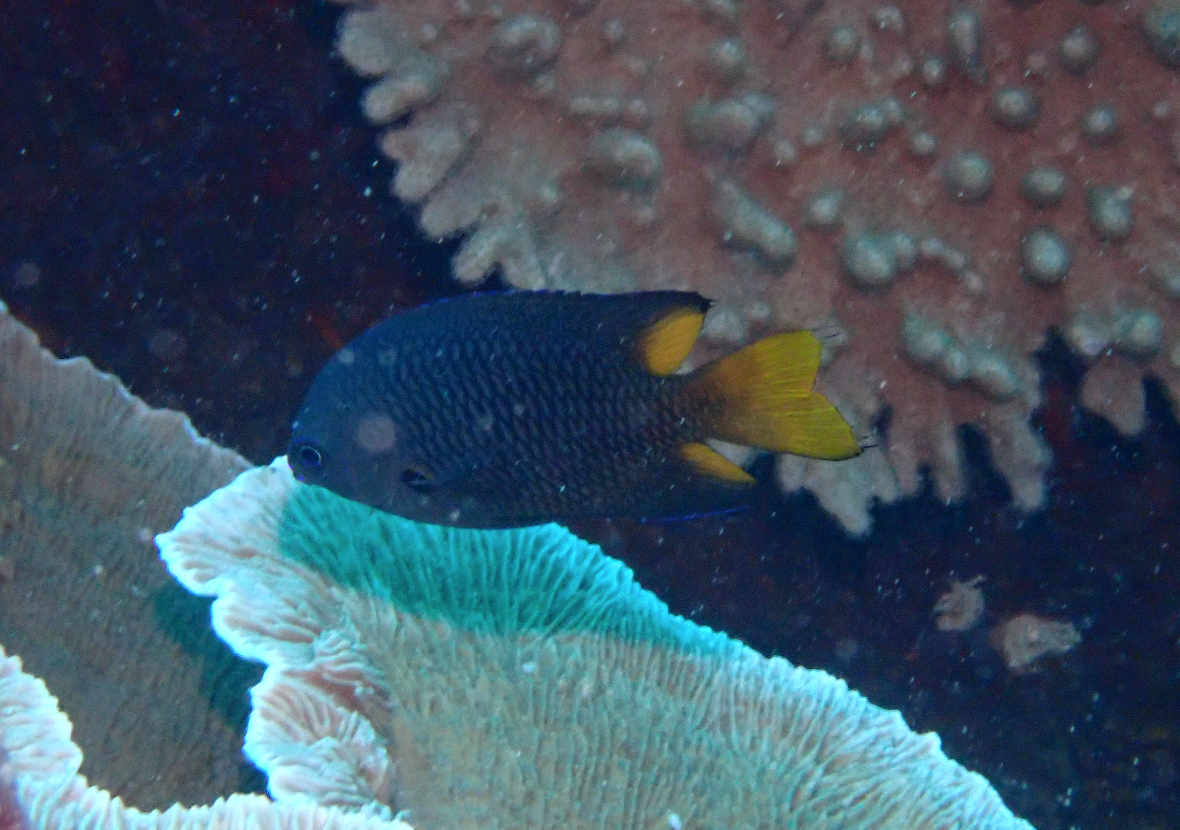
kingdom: Animalia
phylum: Chordata
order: Perciformes
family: Pomacentridae
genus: Neopomacentrus
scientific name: Neopomacentrus violascens
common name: Violet demoiselle
